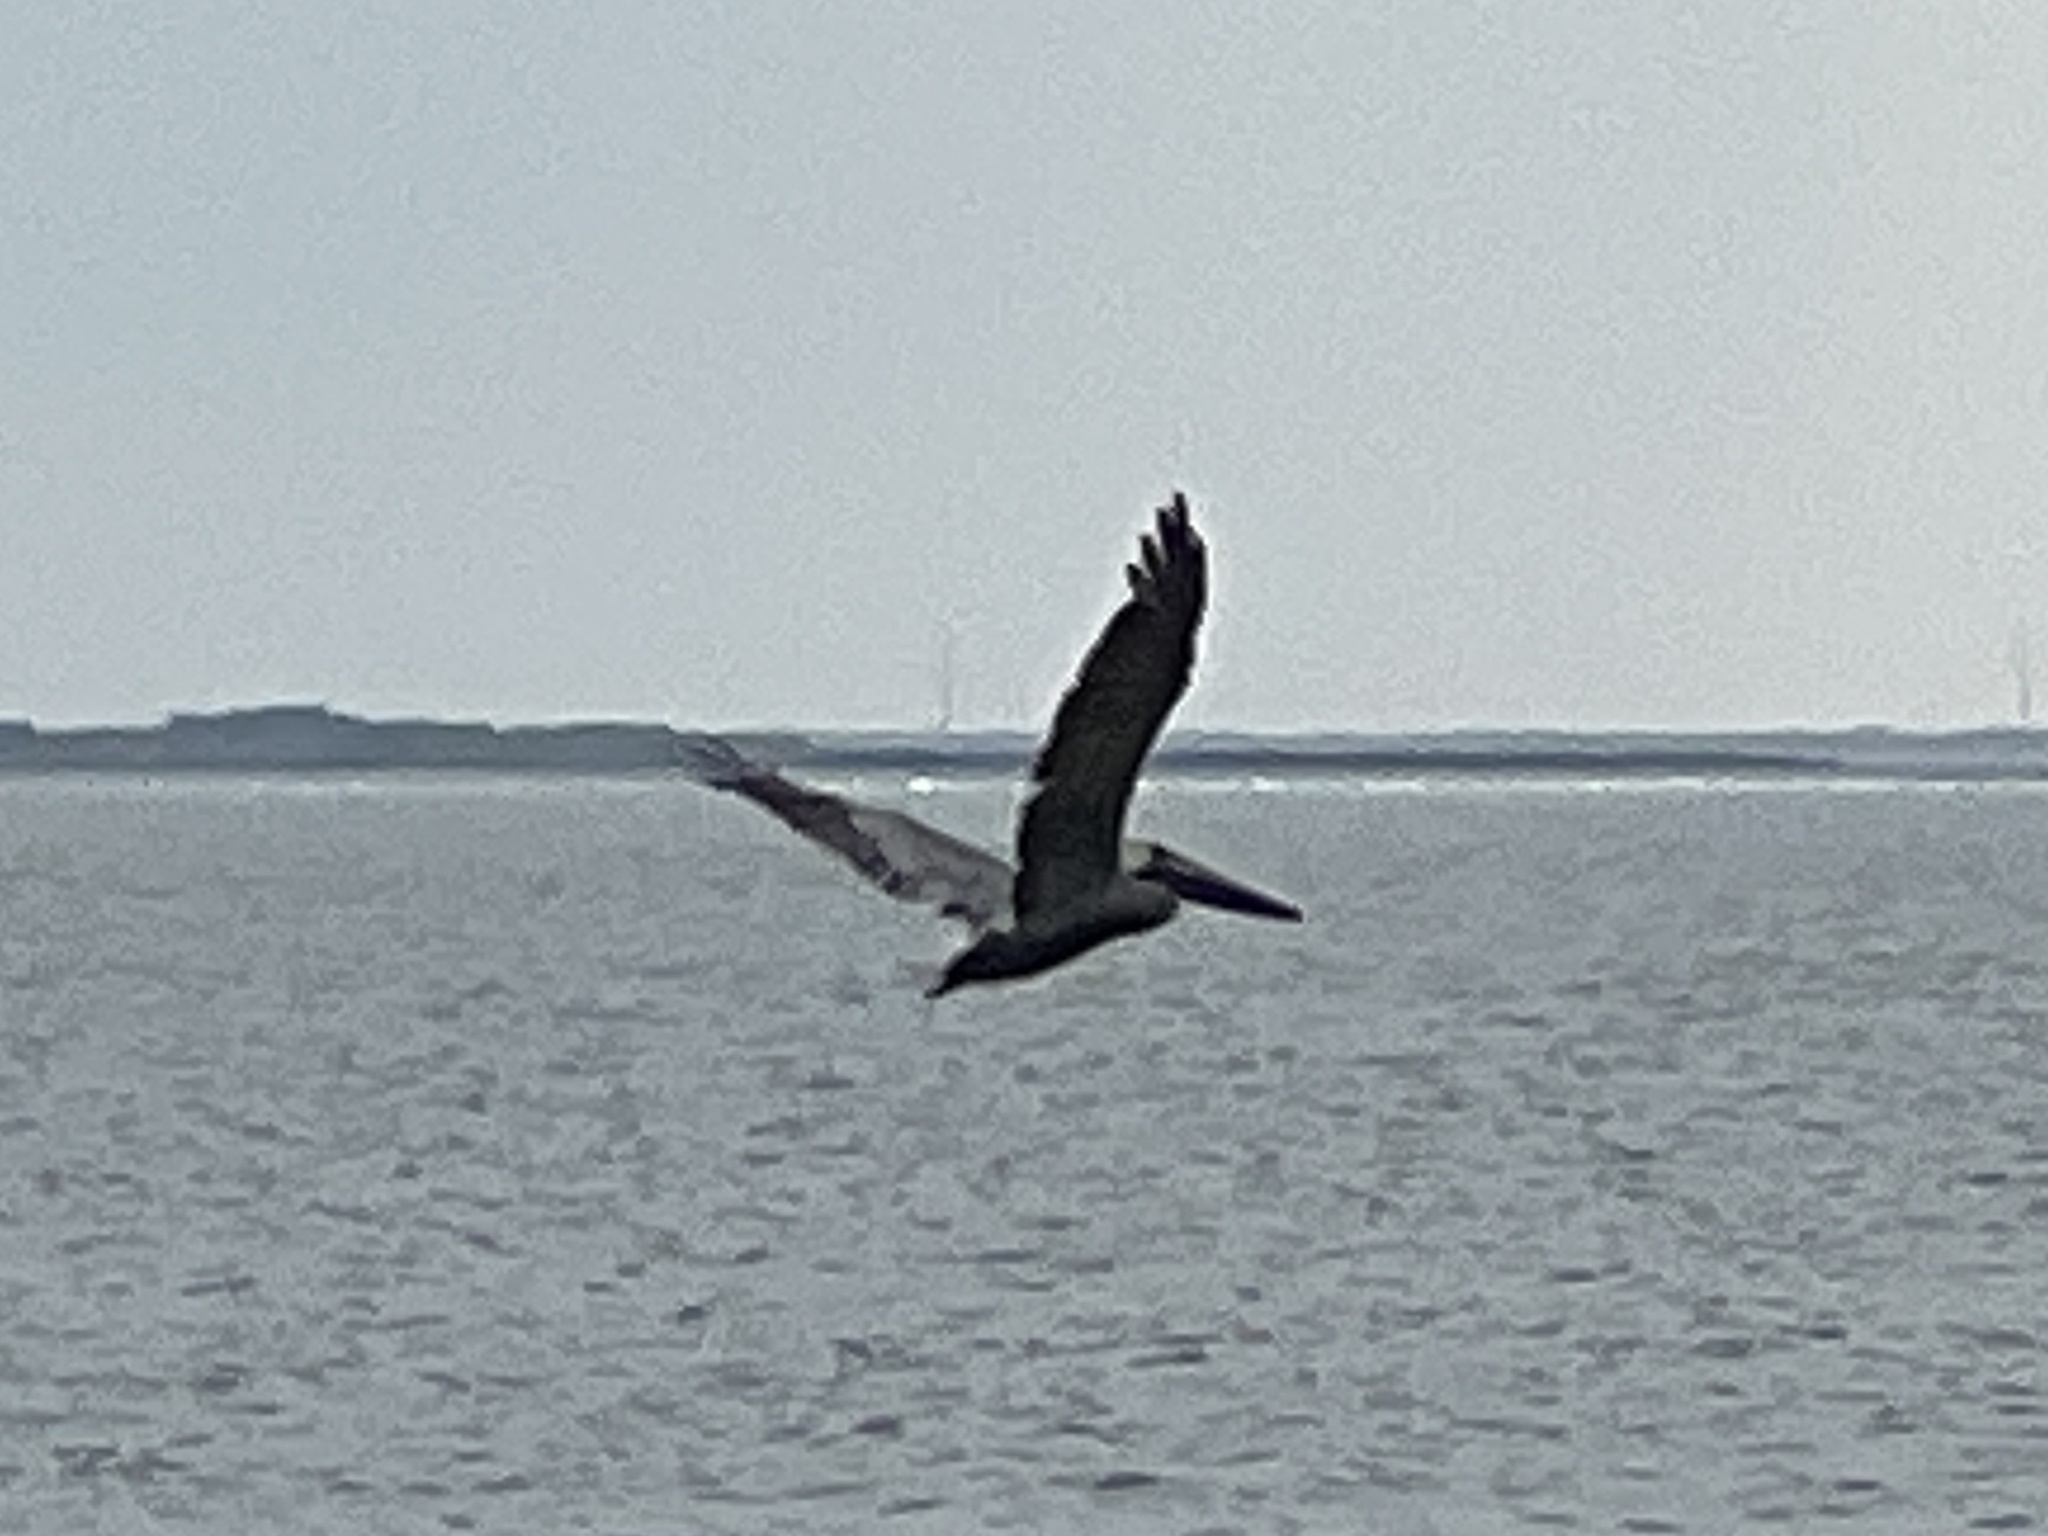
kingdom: Animalia
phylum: Chordata
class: Aves
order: Pelecaniformes
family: Pelecanidae
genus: Pelecanus
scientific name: Pelecanus occidentalis
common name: Brown pelican
